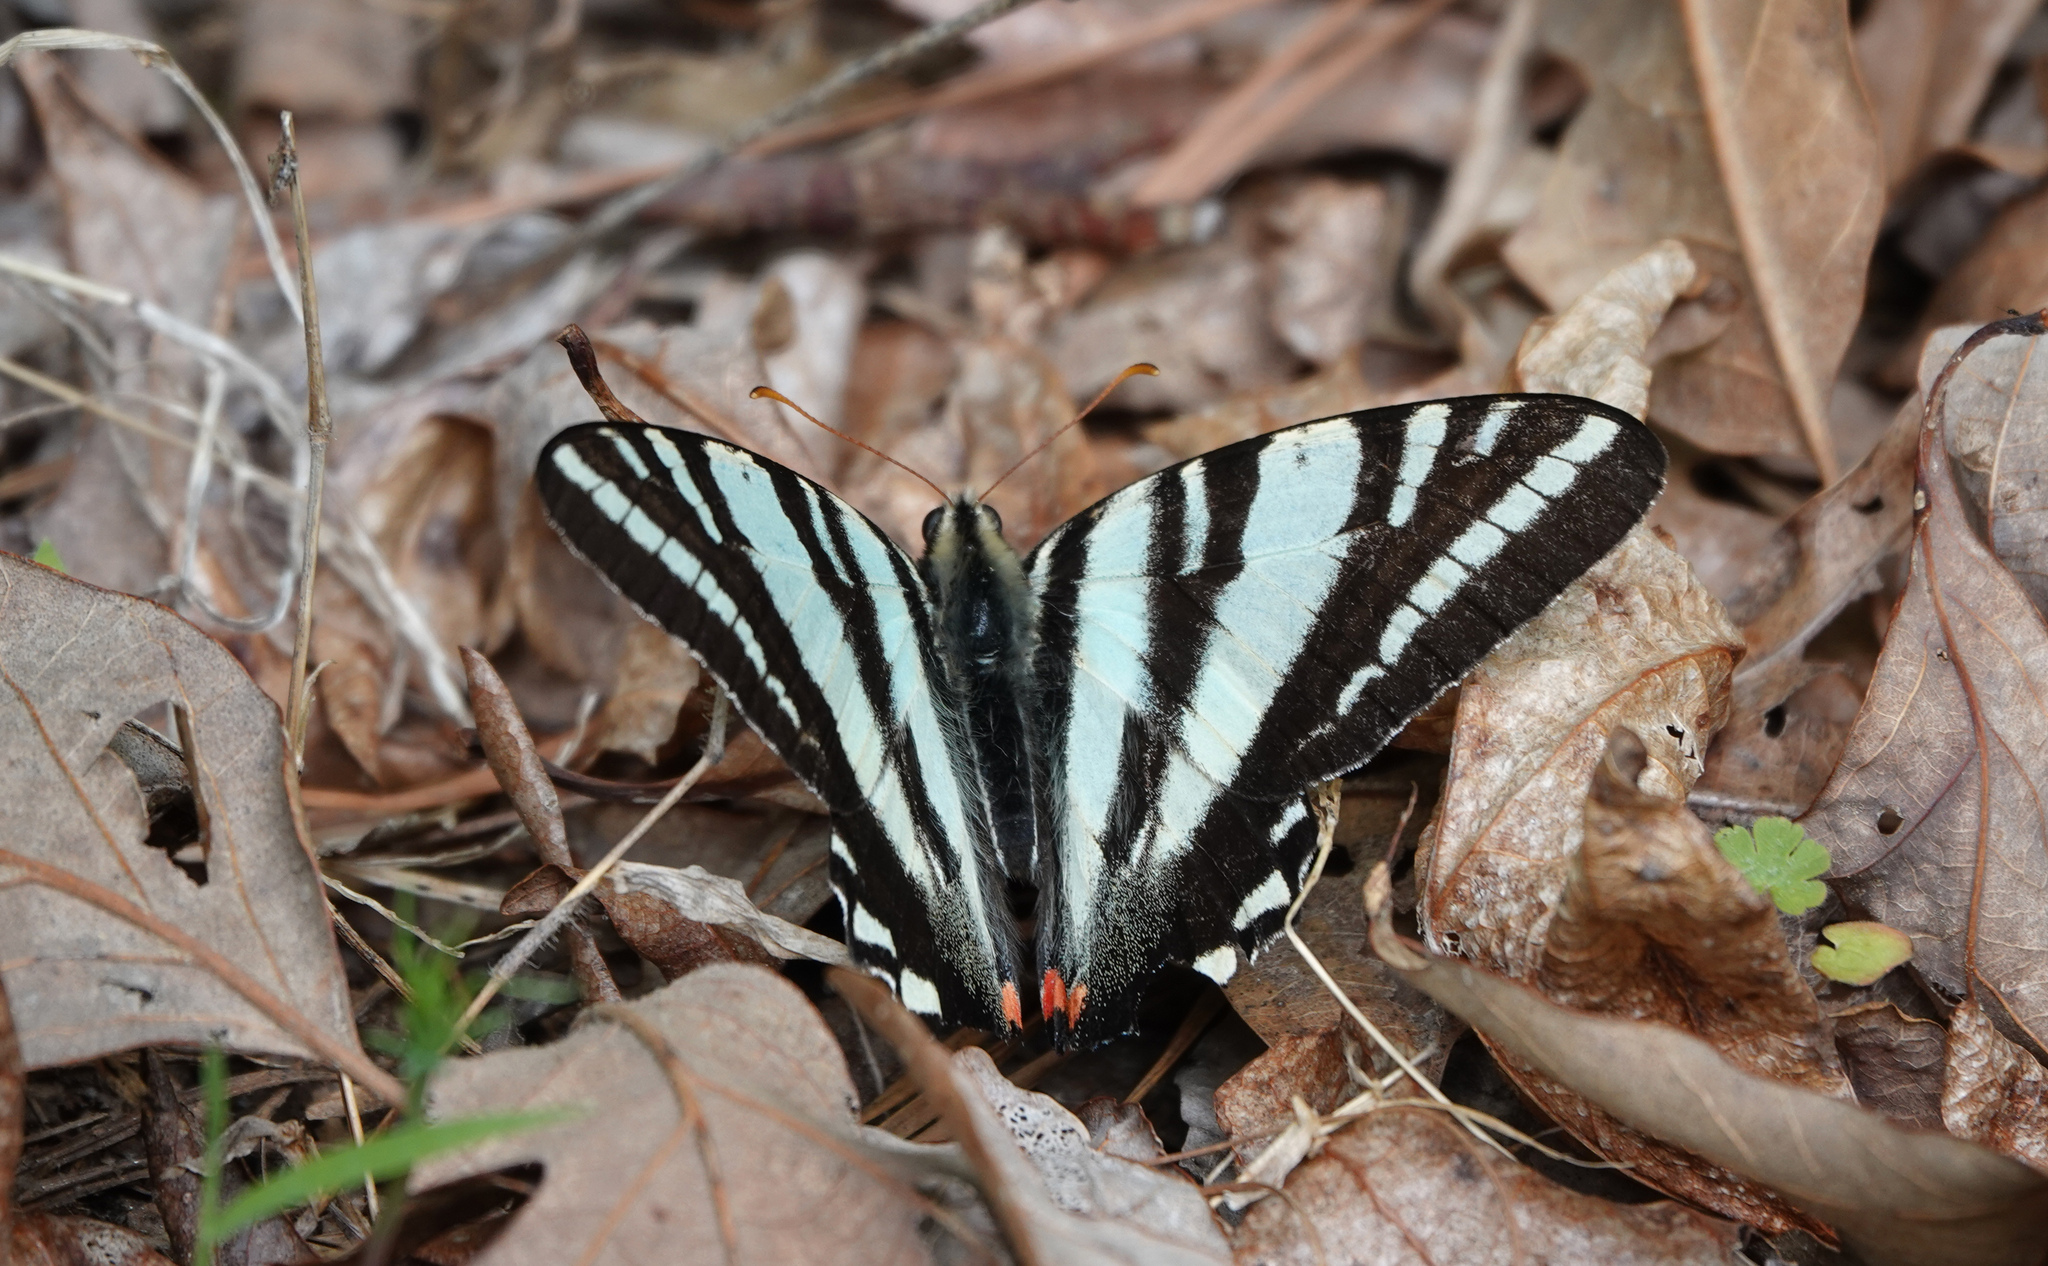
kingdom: Animalia
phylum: Arthropoda
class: Insecta
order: Lepidoptera
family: Papilionidae
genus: Protographium
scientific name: Protographium marcellus
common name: Zebra swallowtail
